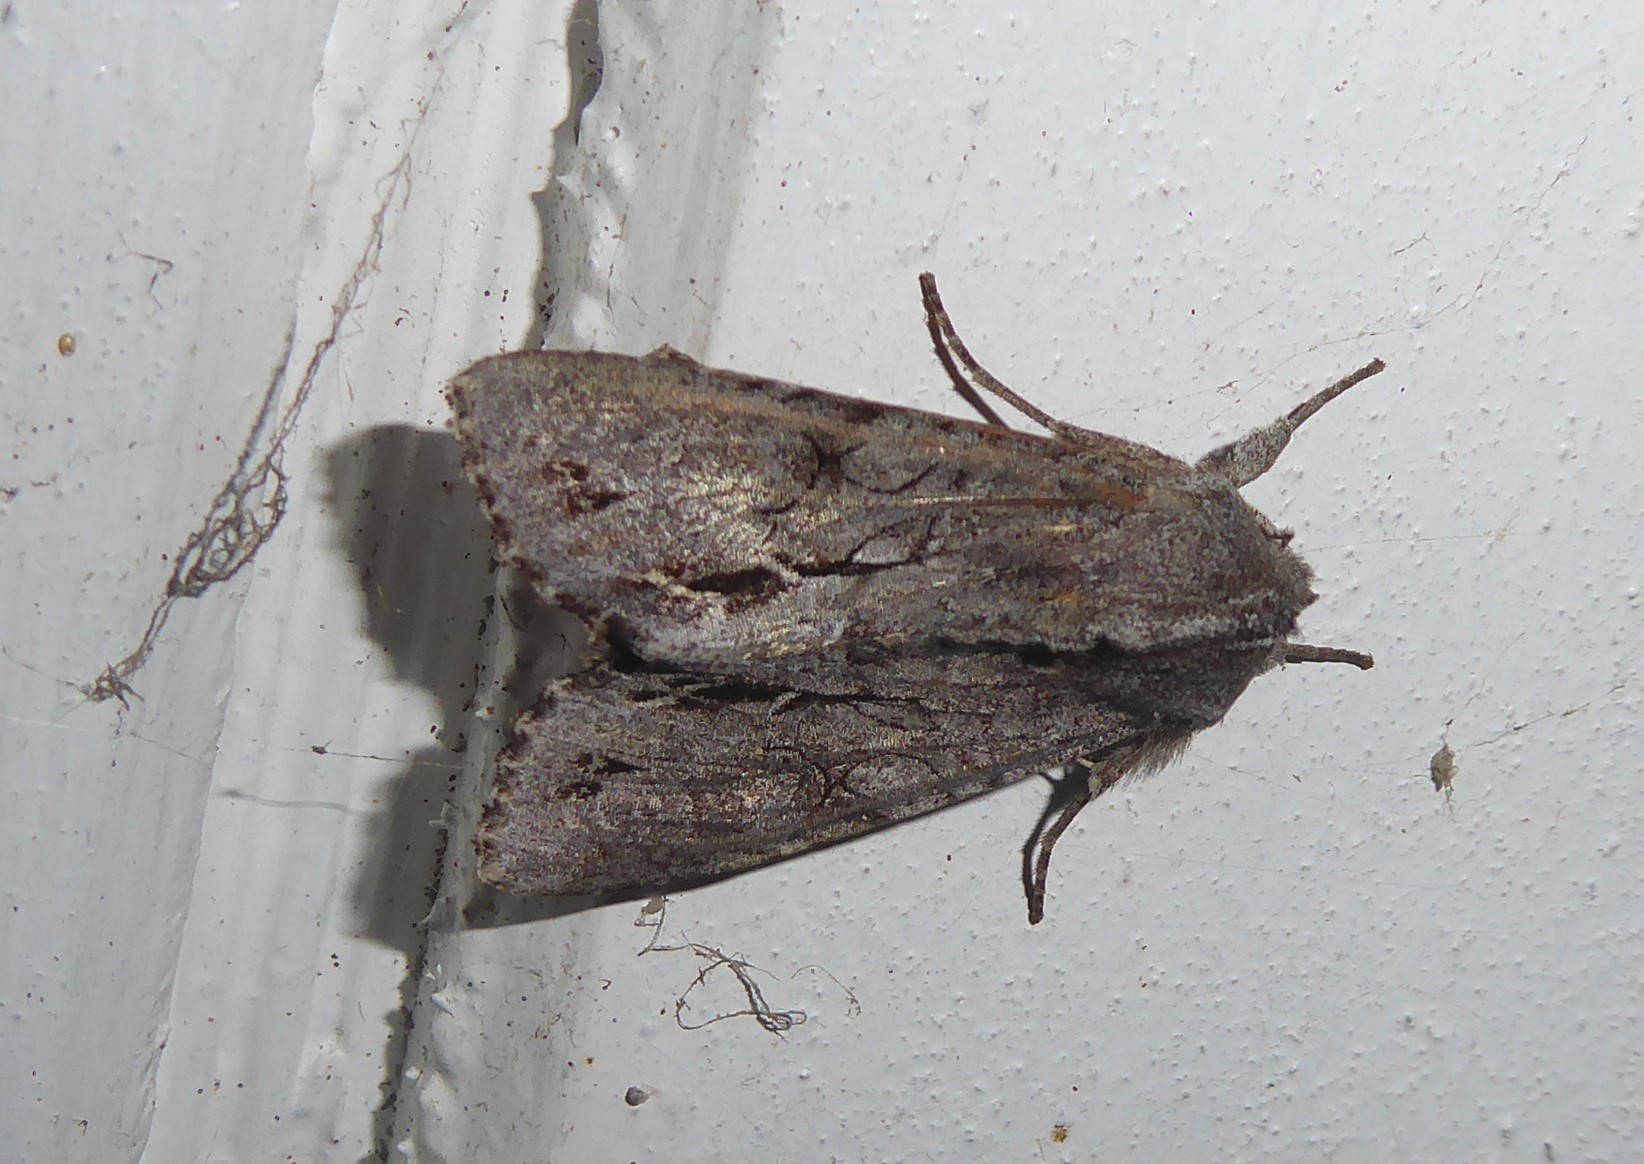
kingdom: Animalia
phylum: Arthropoda
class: Insecta
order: Lepidoptera
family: Noctuidae
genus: Ichneutica
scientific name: Ichneutica
